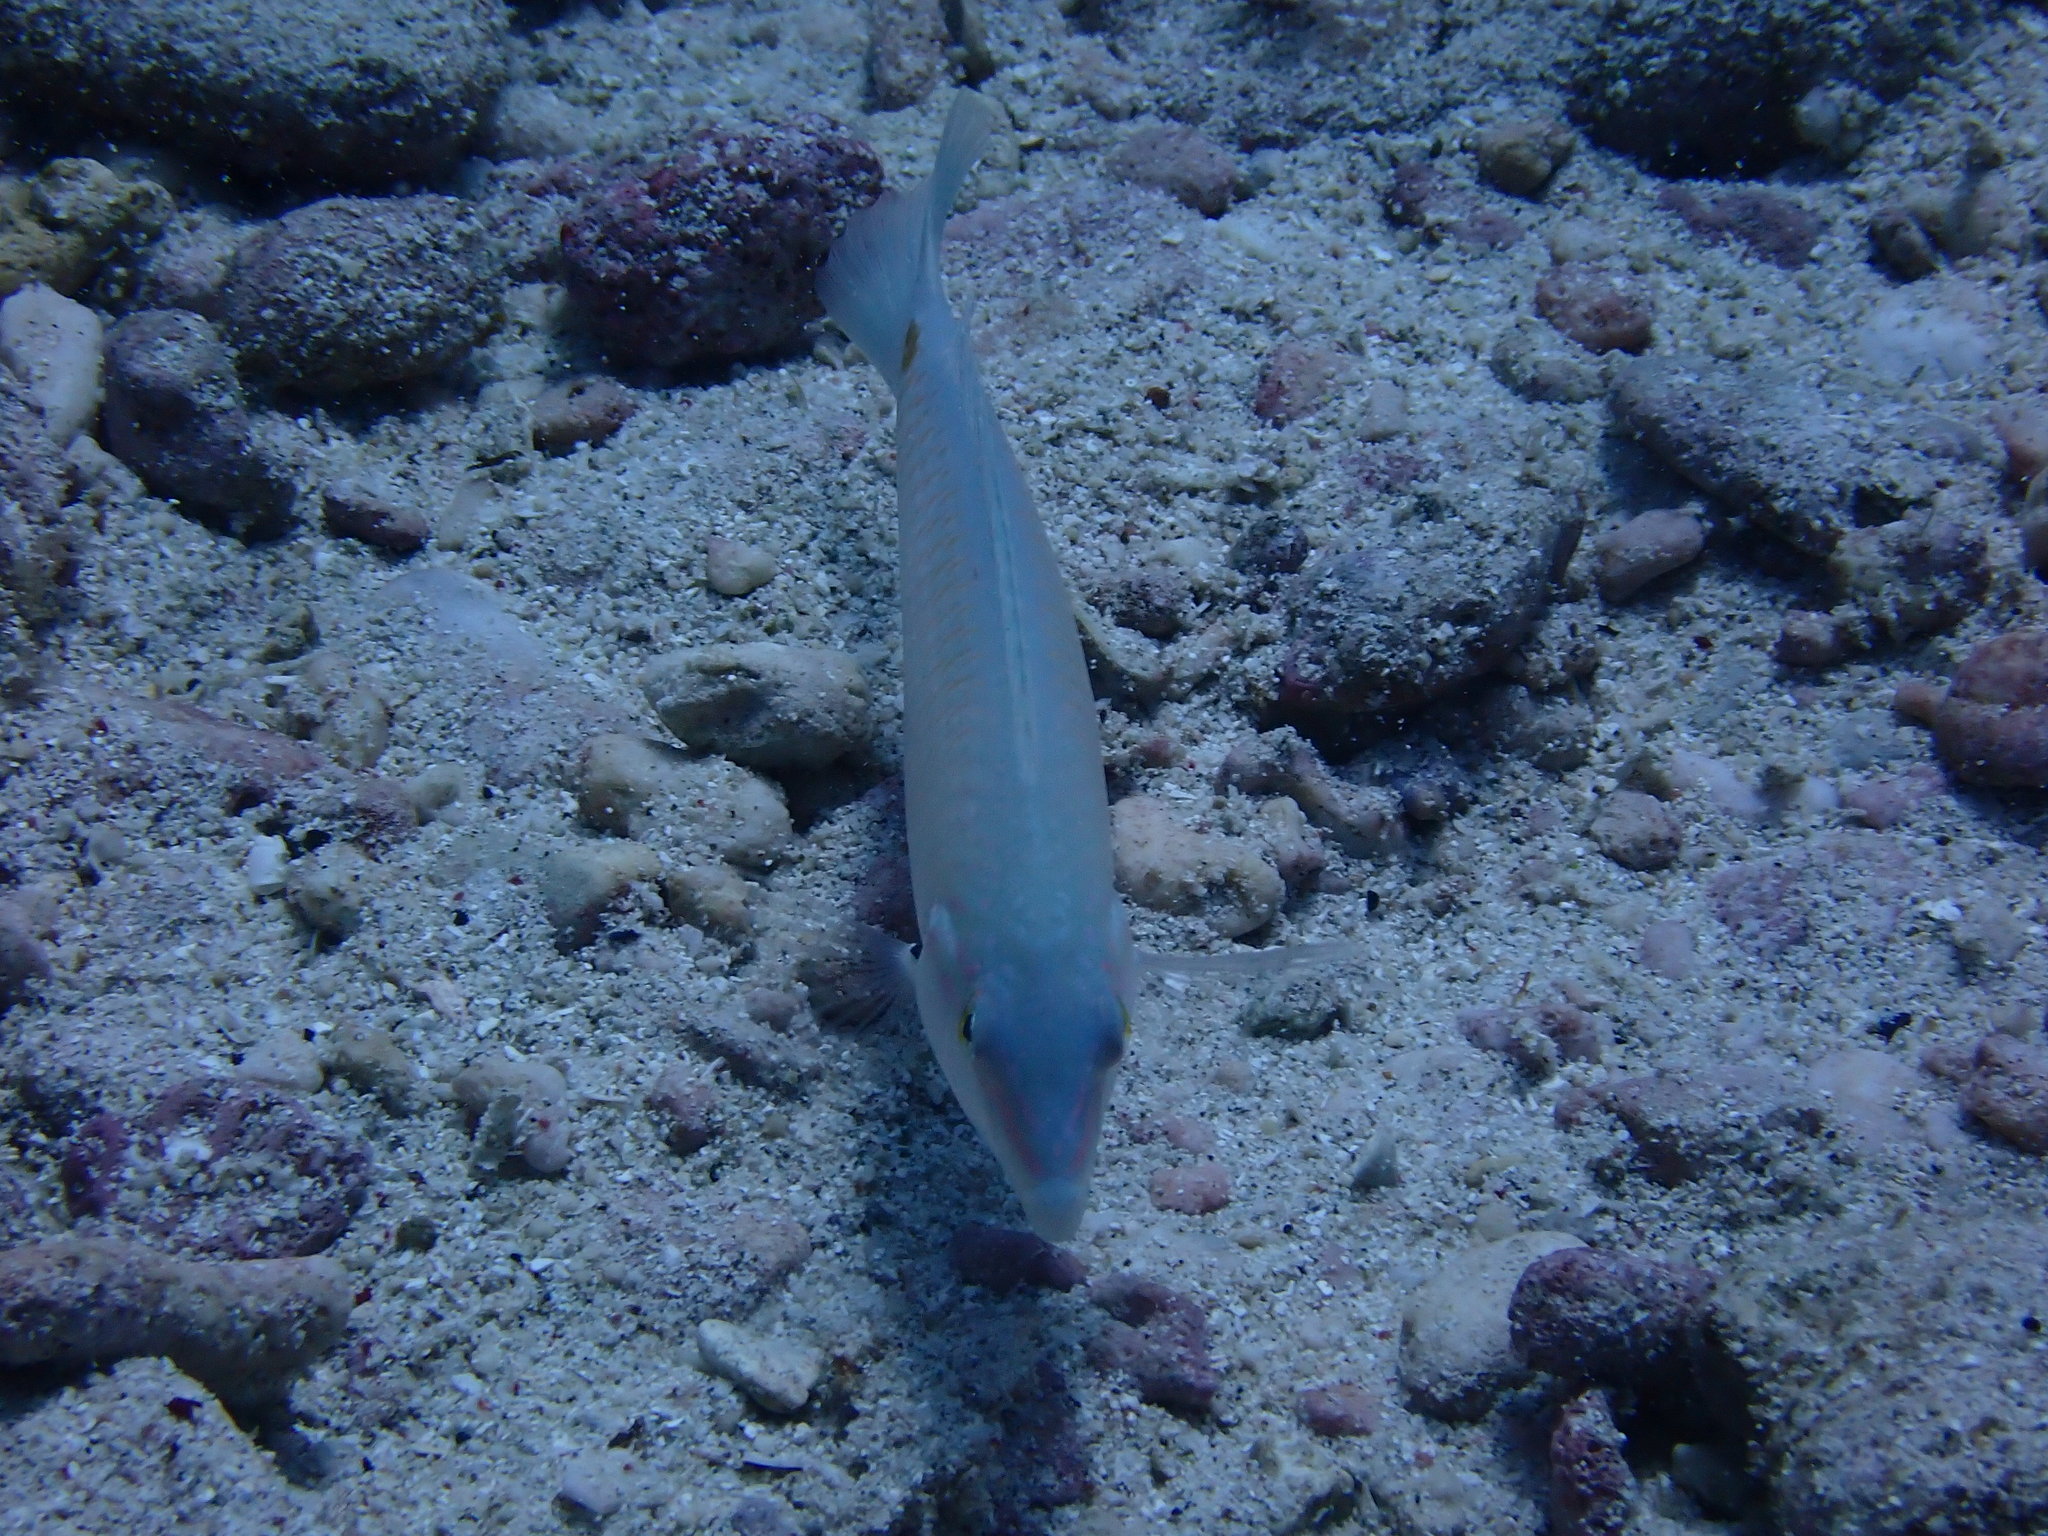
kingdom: Animalia
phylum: Chordata
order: Perciformes
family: Labridae
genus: Halichoeres
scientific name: Halichoeres trimaculatus
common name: Three-spot wrasse
